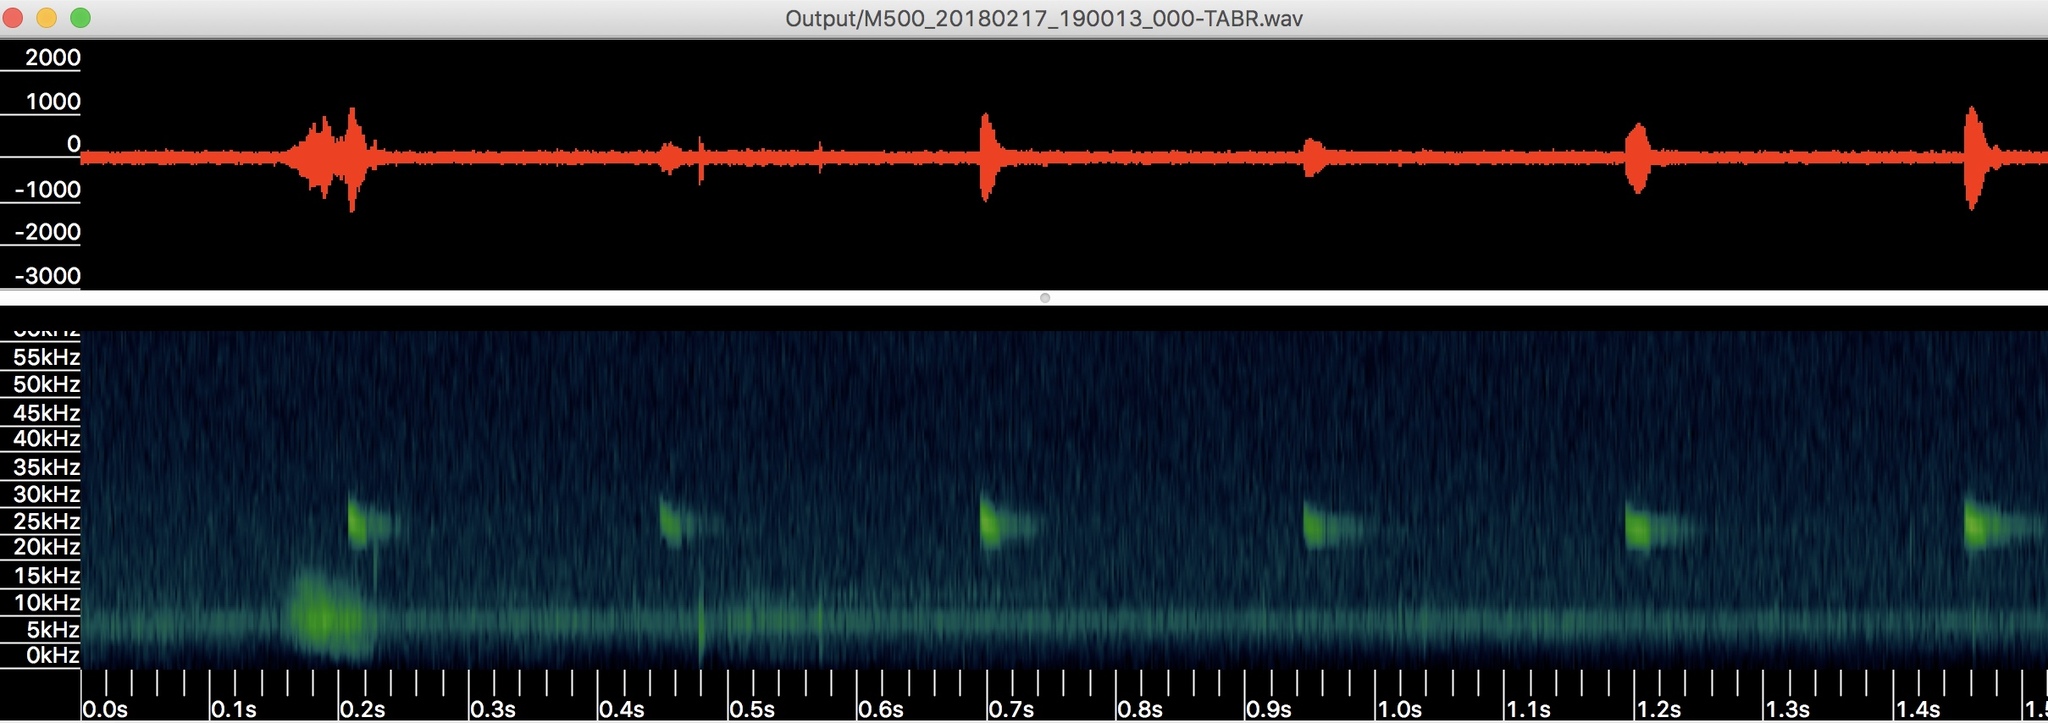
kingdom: Animalia
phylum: Chordata
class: Mammalia
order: Chiroptera
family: Molossidae
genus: Tadarida
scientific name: Tadarida brasiliensis
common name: Mexican free-tailed bat
